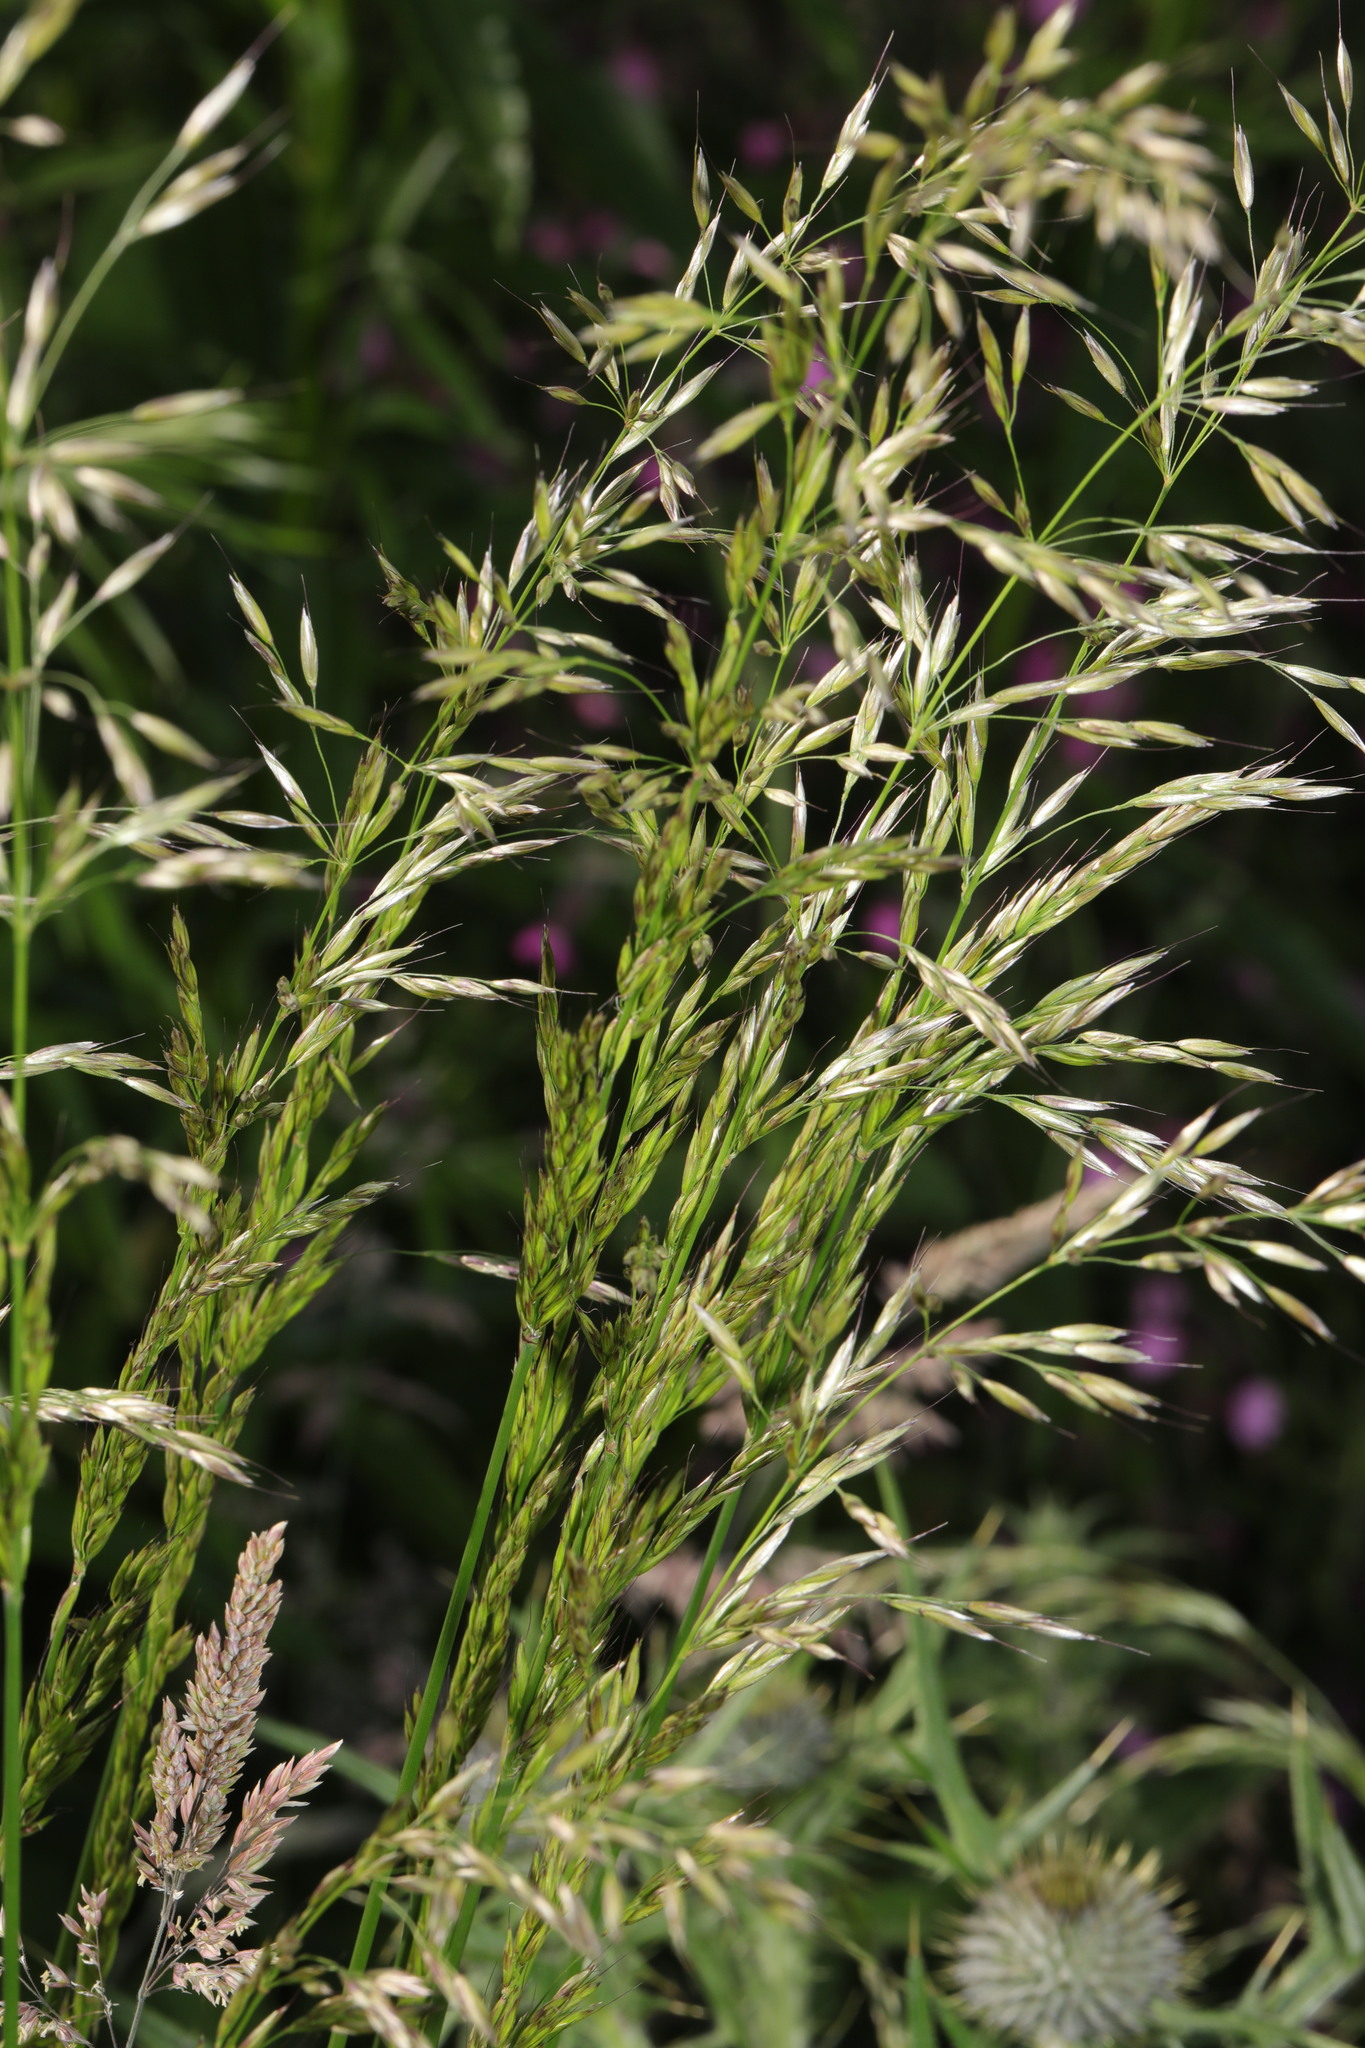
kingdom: Plantae
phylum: Tracheophyta
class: Liliopsida
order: Poales
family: Poaceae
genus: Arrhenatherum
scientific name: Arrhenatherum elatius
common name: Tall oatgrass
